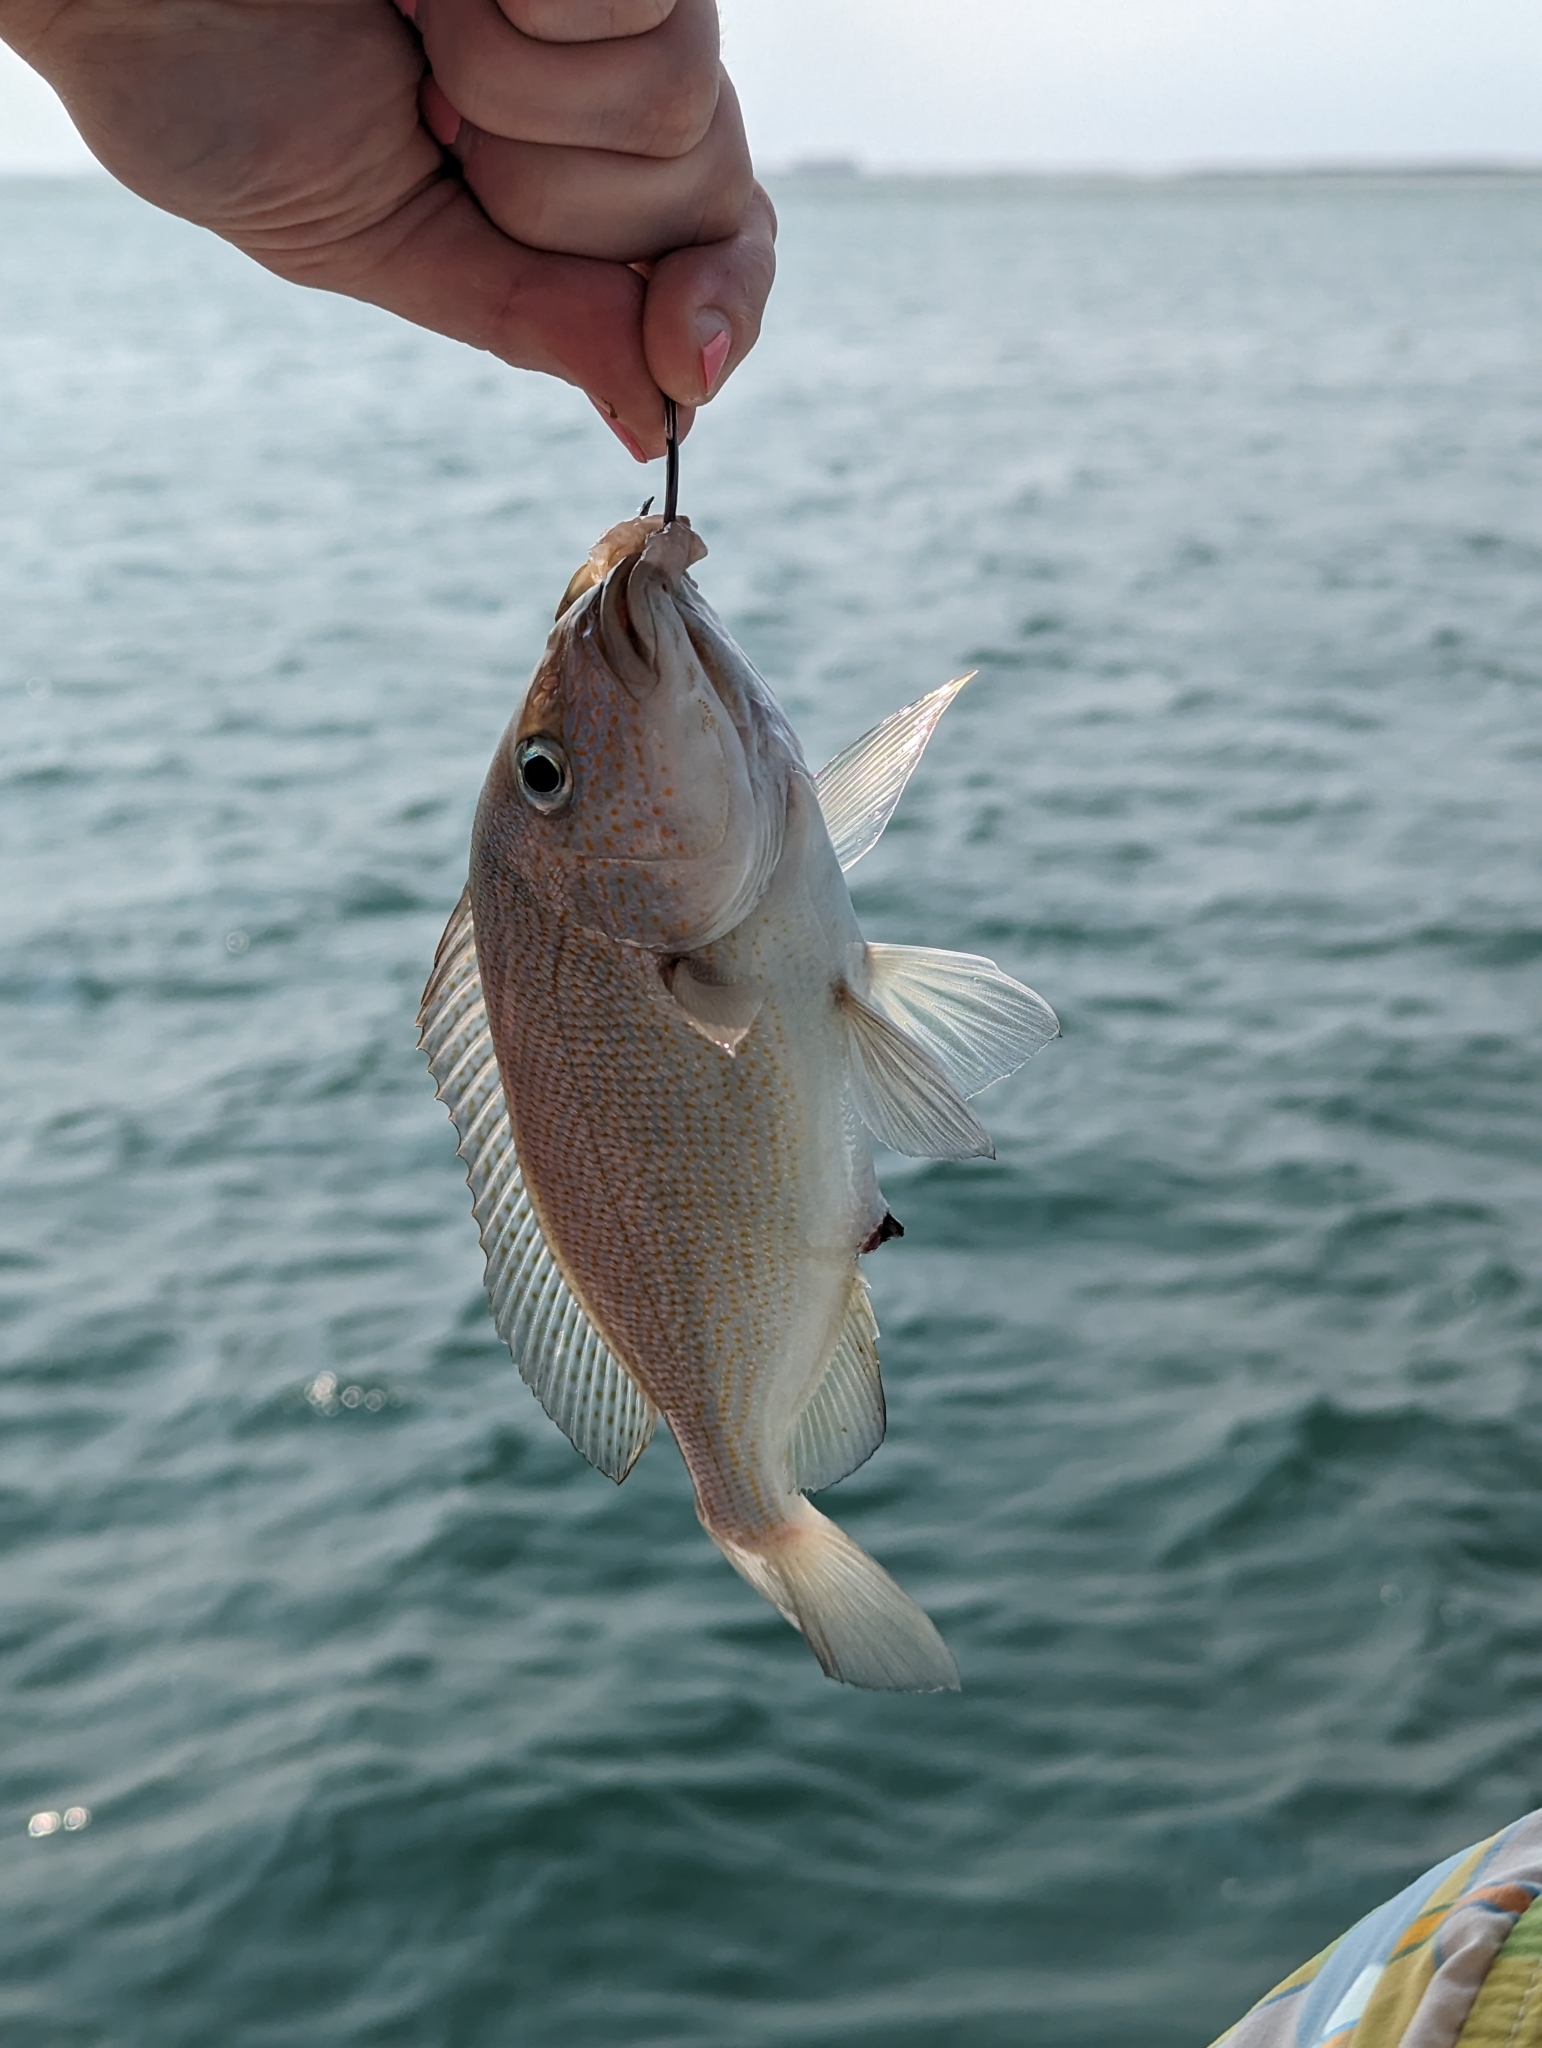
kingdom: Animalia
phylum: Chordata
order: Perciformes
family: Haemulidae
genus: Orthopristis
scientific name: Orthopristis chrysoptera
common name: Pigfish
